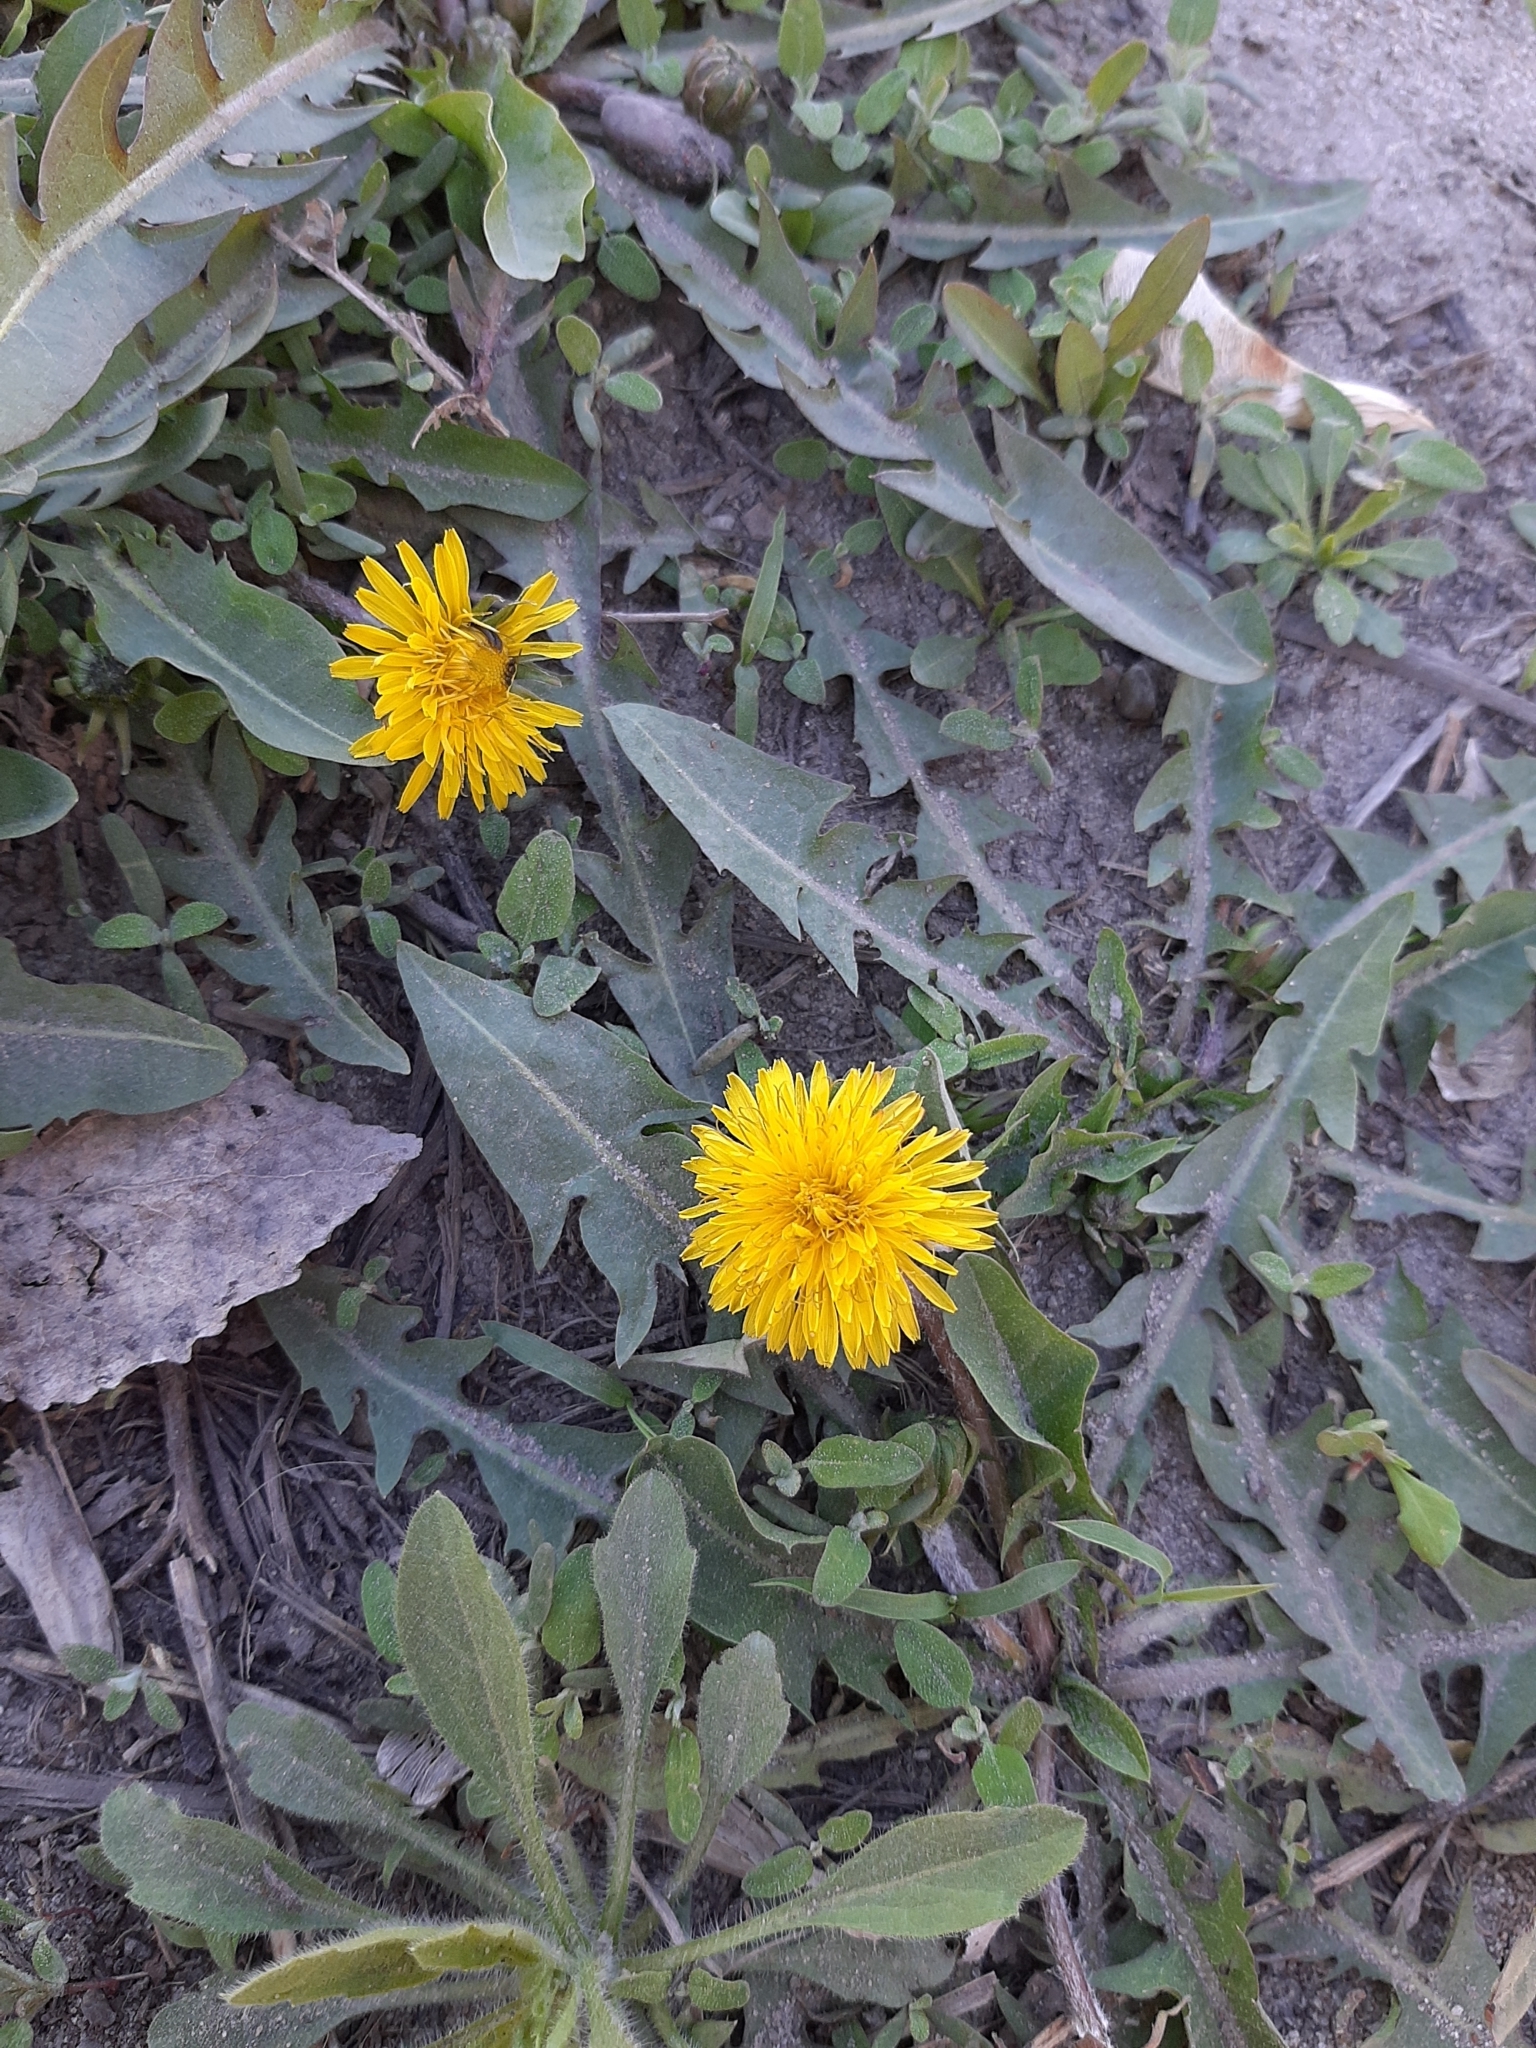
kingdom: Plantae
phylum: Tracheophyta
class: Magnoliopsida
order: Asterales
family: Asteraceae
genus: Taraxacum
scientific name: Taraxacum officinale
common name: Common dandelion
